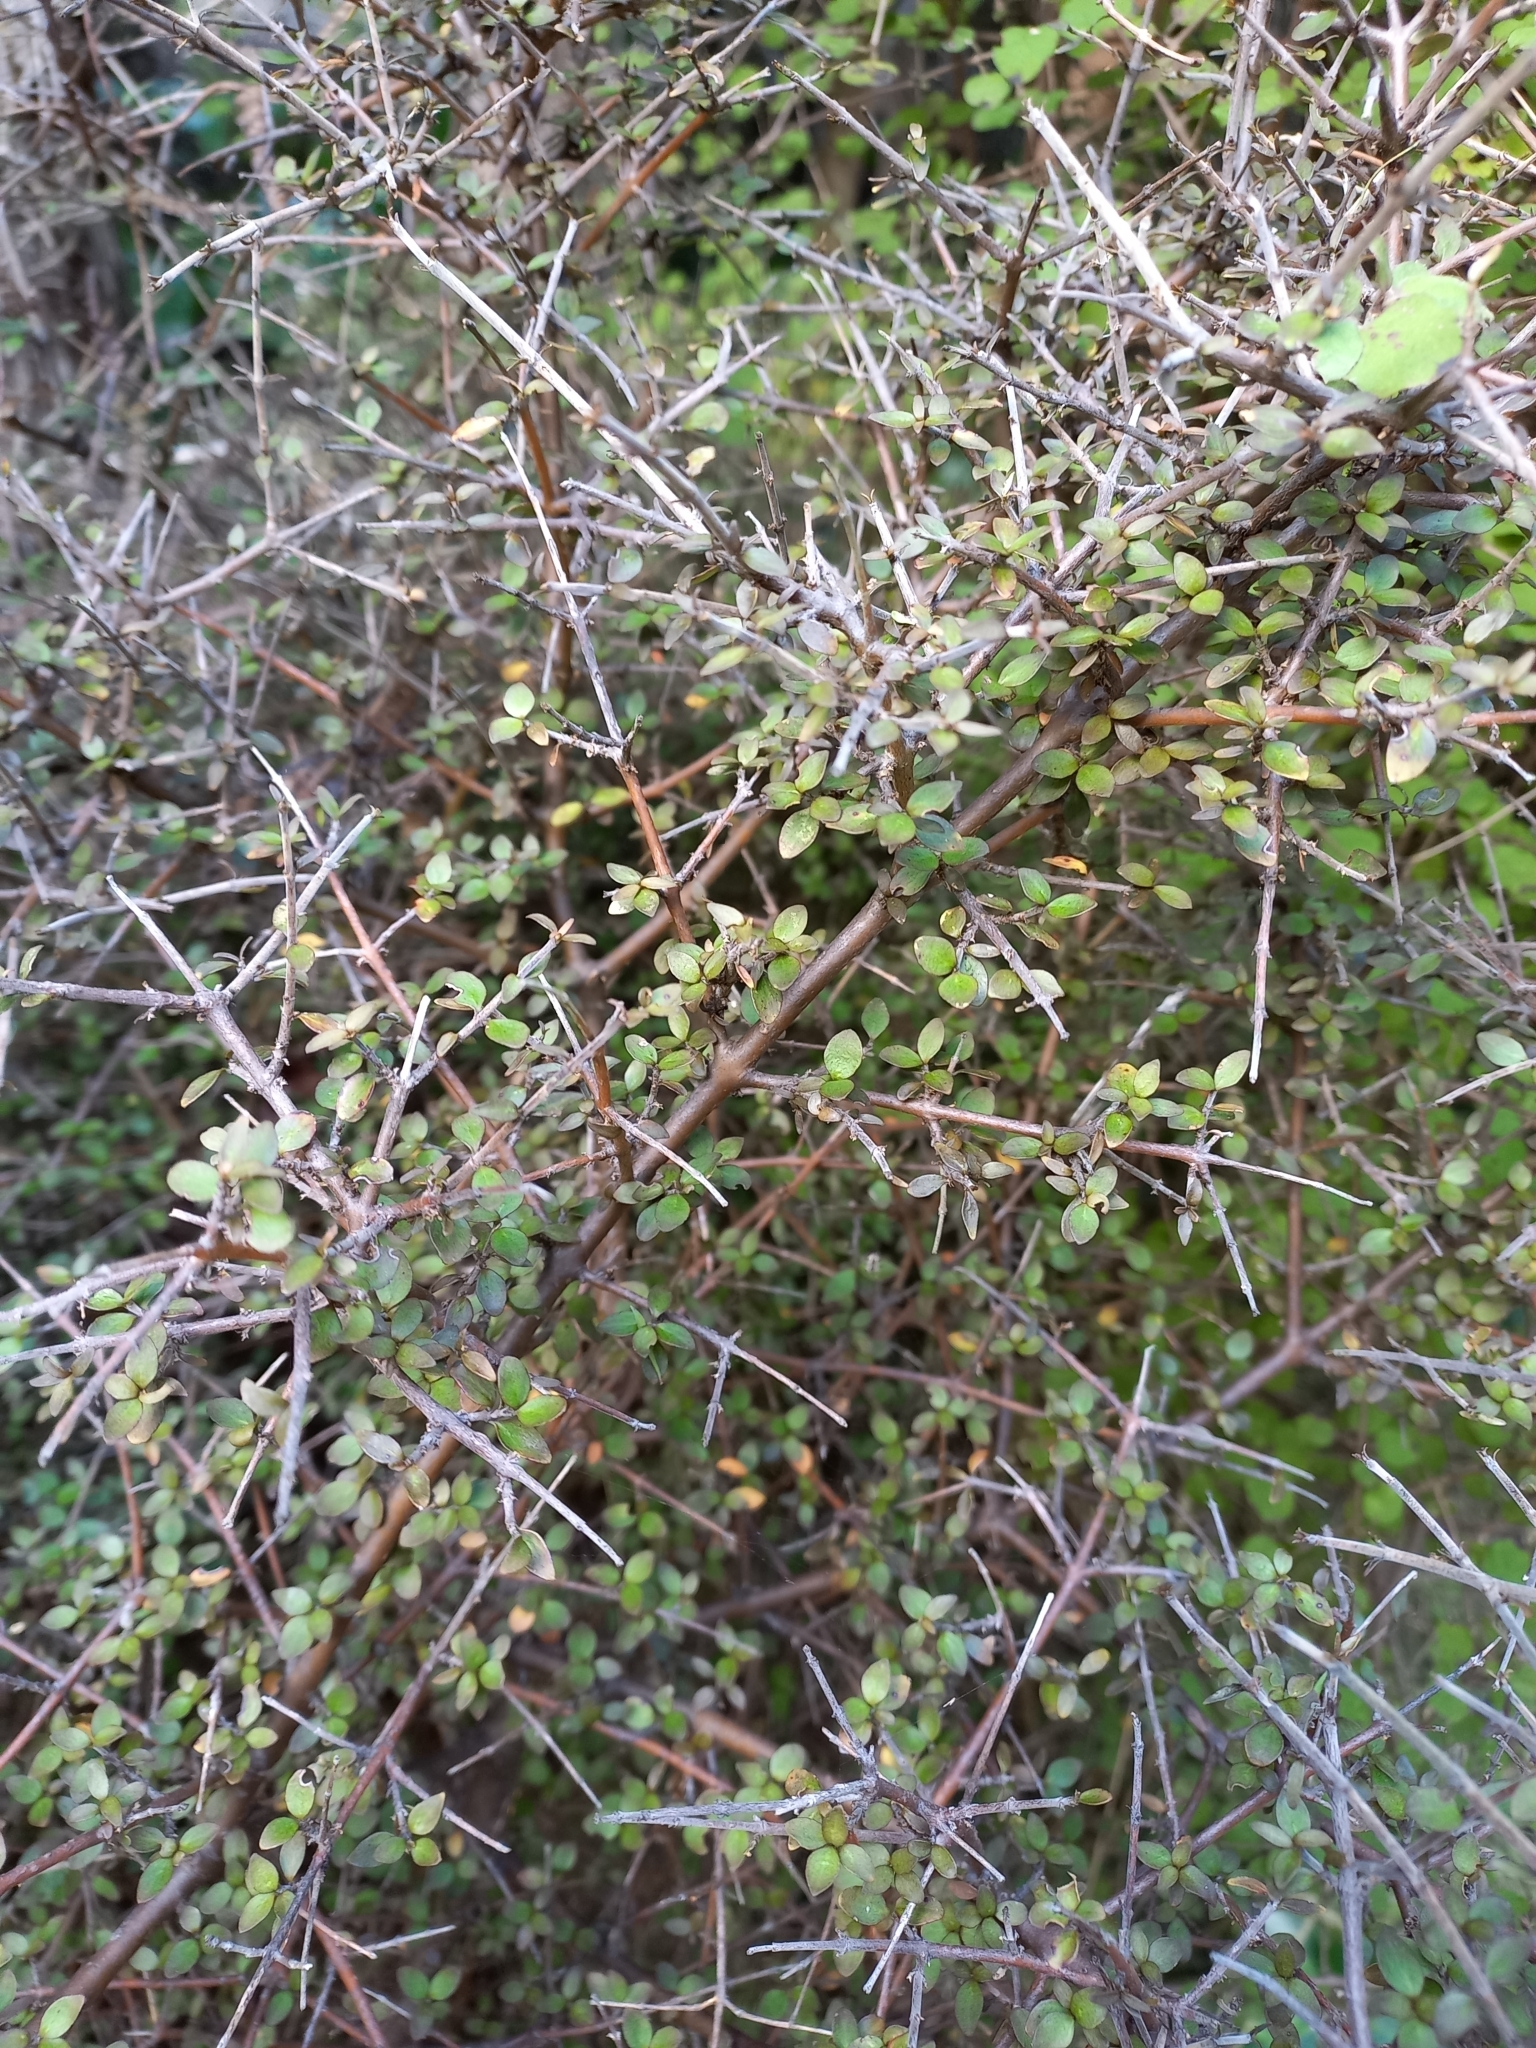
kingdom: Plantae
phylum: Tracheophyta
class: Magnoliopsida
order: Gentianales
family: Rubiaceae
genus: Coprosma
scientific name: Coprosma rhamnoides
